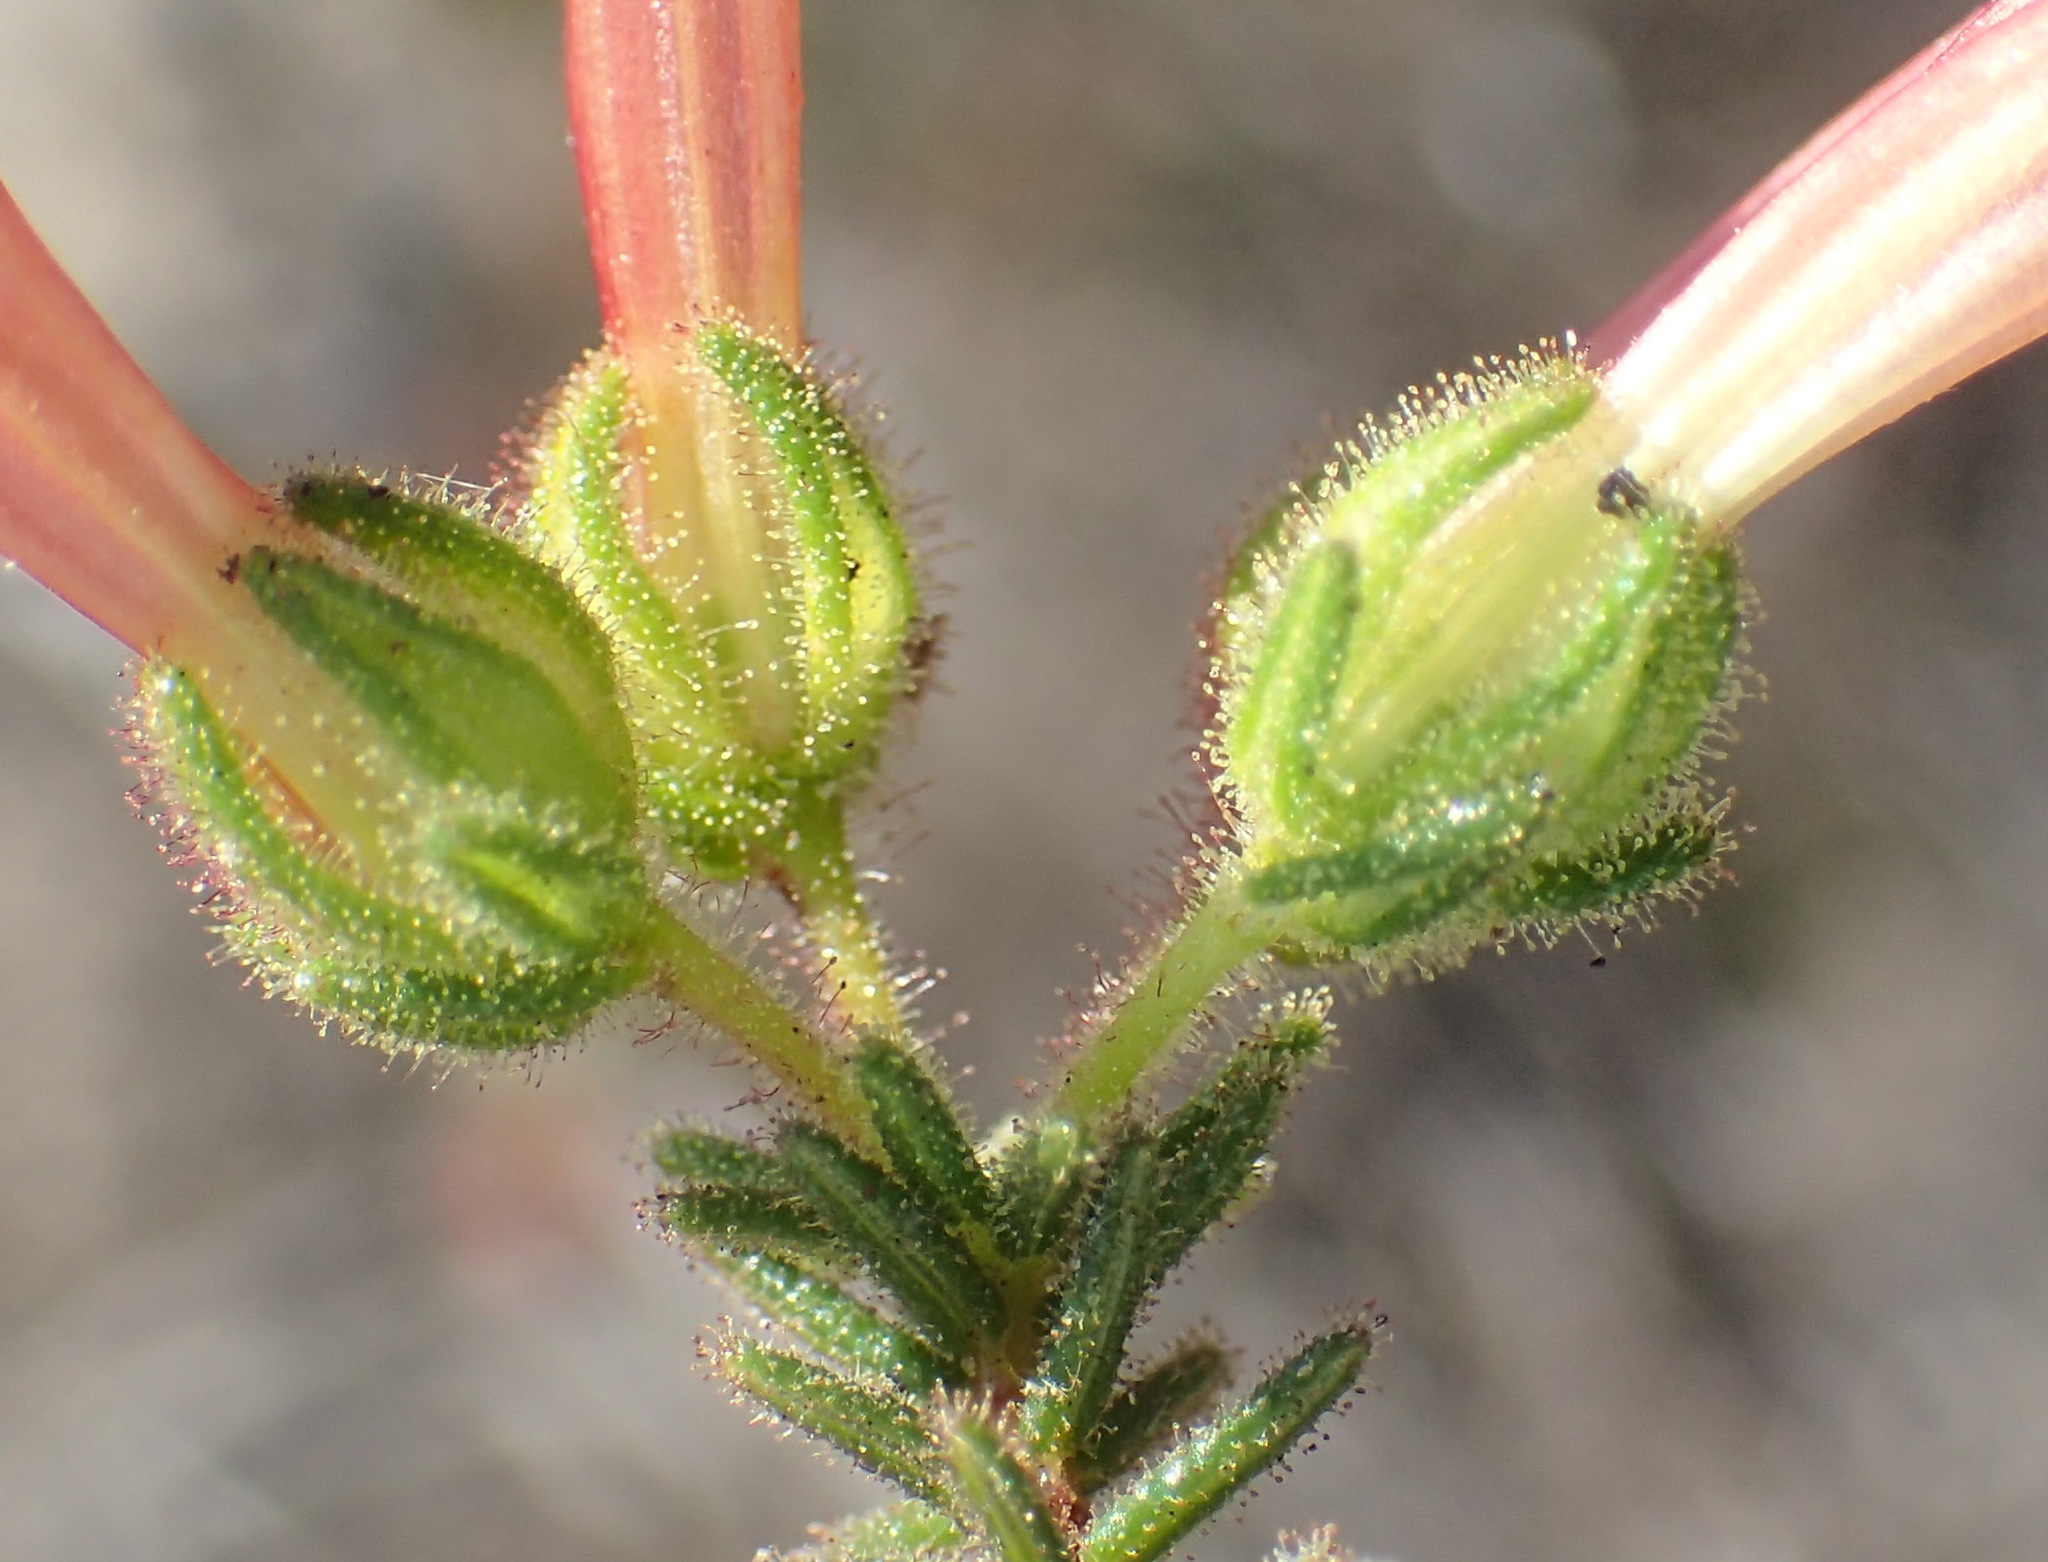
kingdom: Plantae
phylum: Tracheophyta
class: Magnoliopsida
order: Ericales
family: Ericaceae
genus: Erica
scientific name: Erica glandulosa
